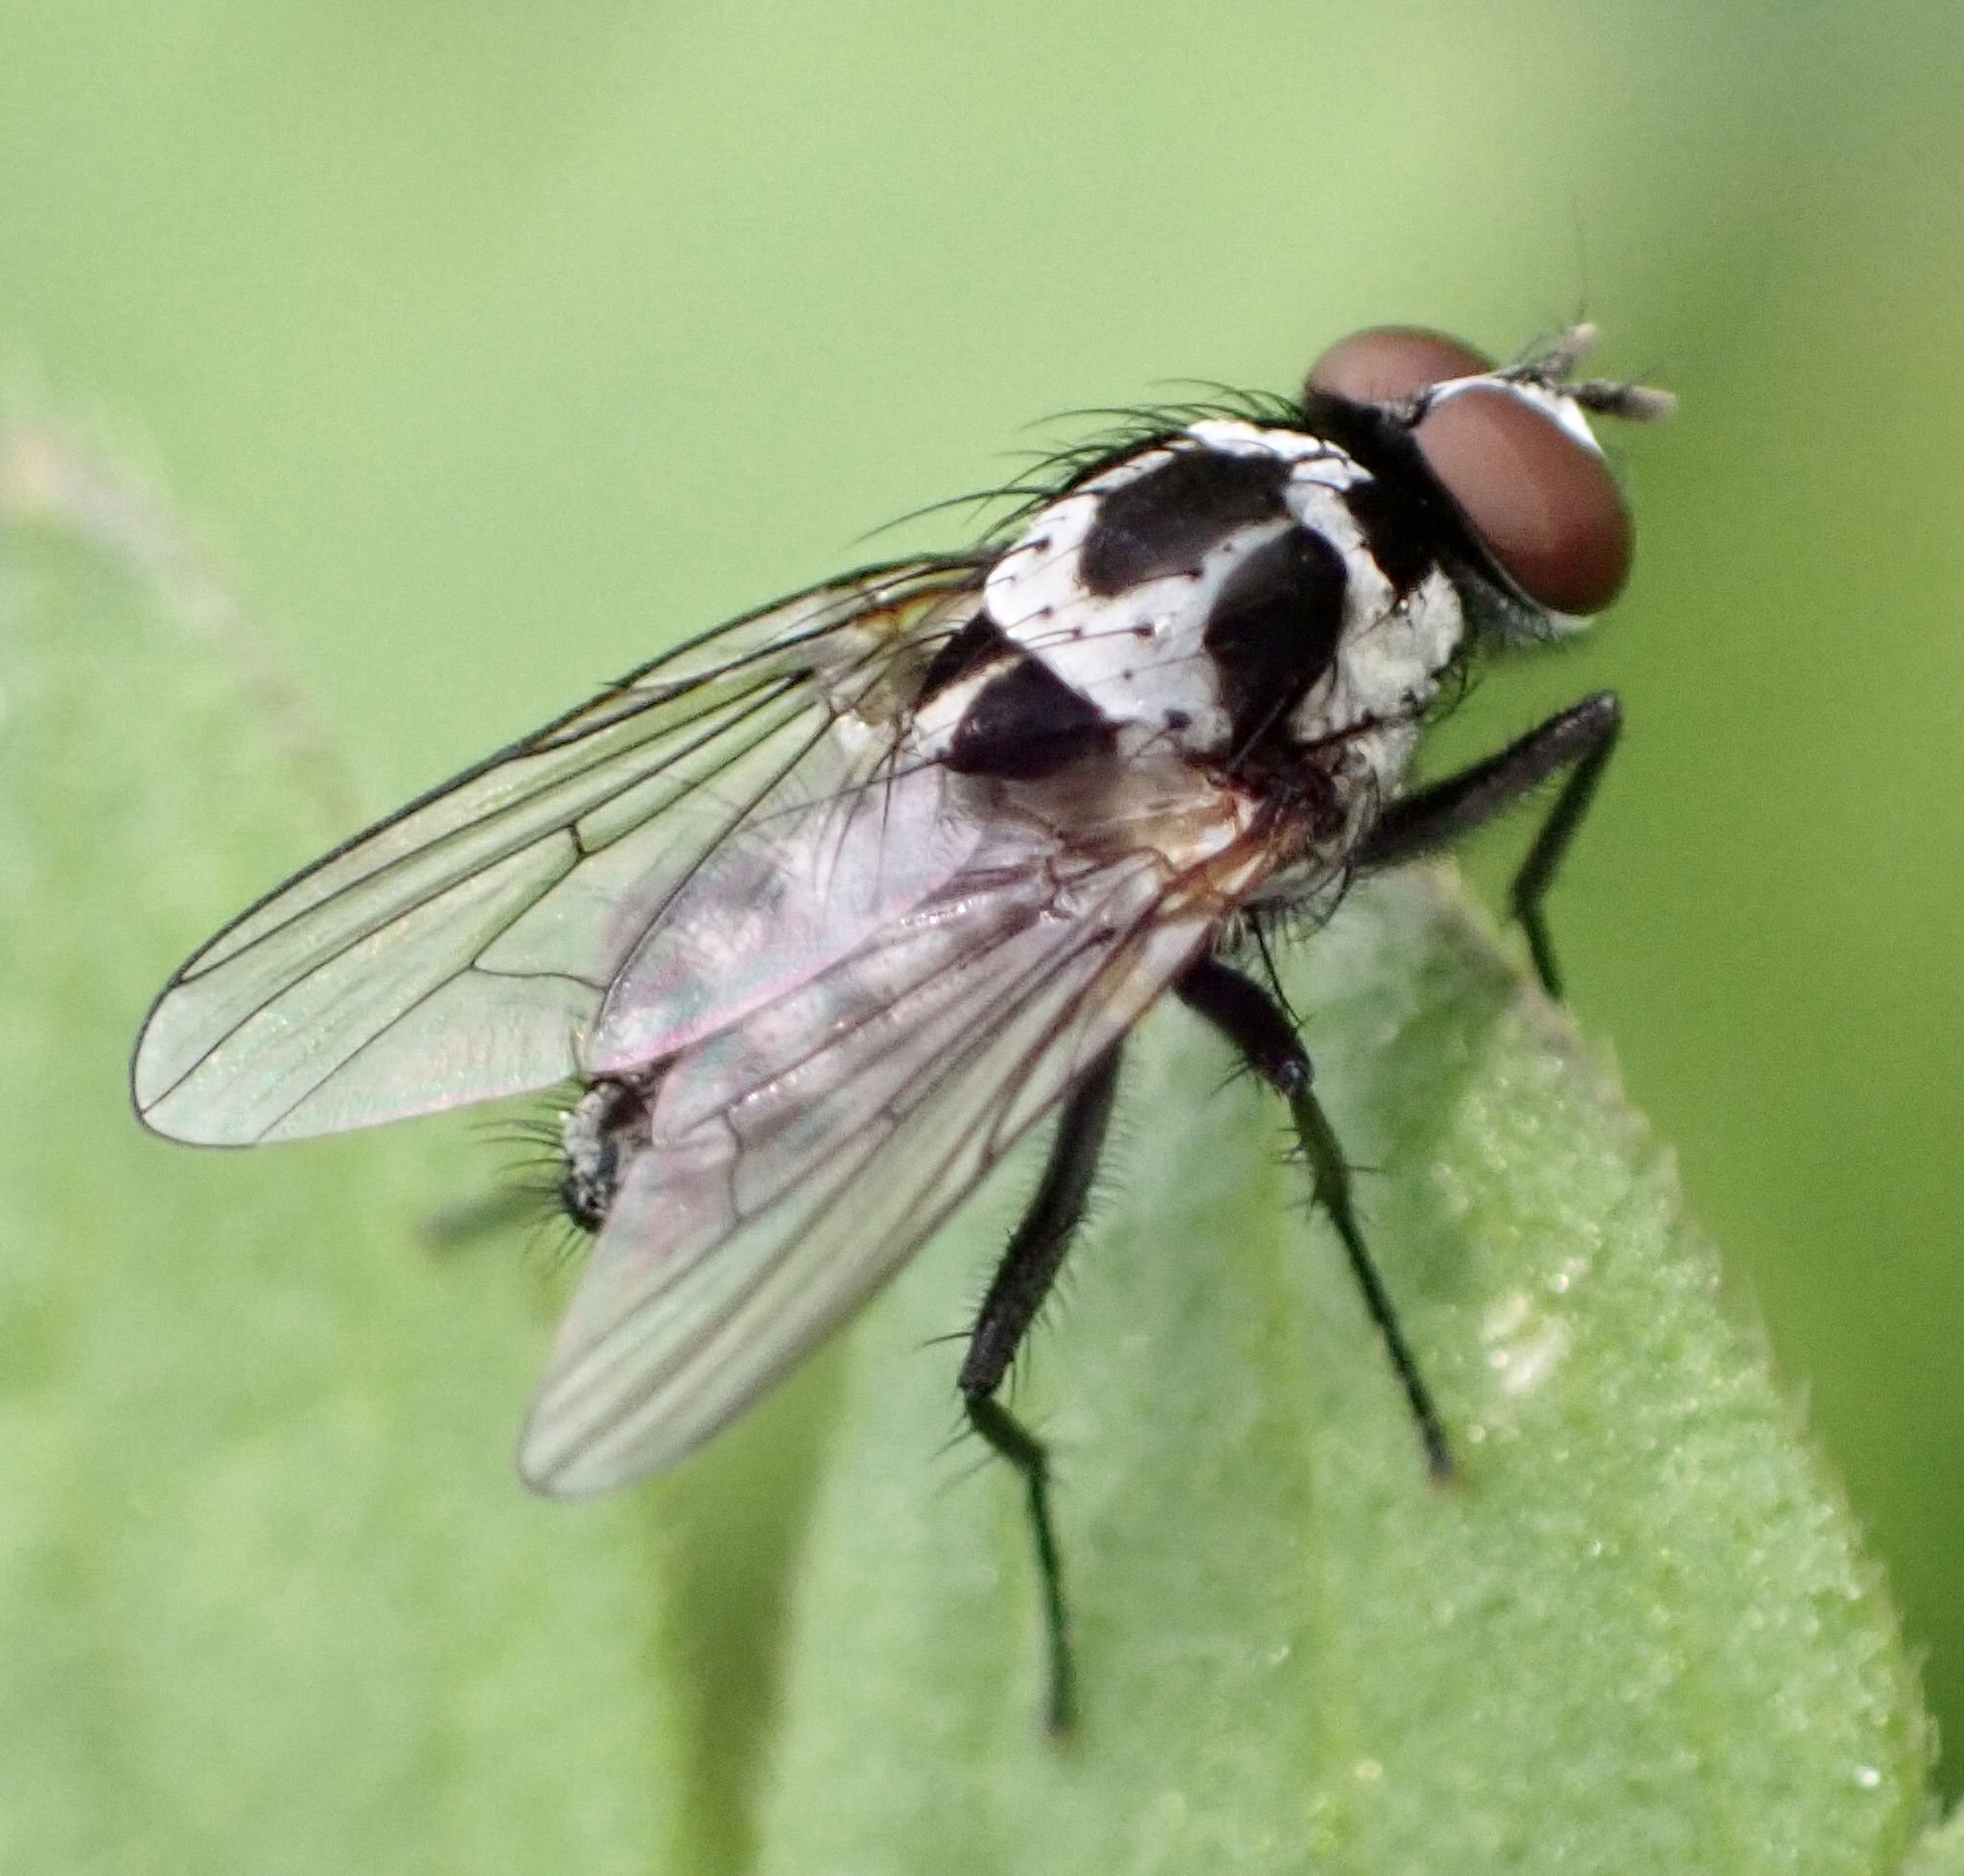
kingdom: Animalia
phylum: Arthropoda
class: Insecta
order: Diptera
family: Anthomyiidae
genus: Anthomyia
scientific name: Anthomyia procellaris
